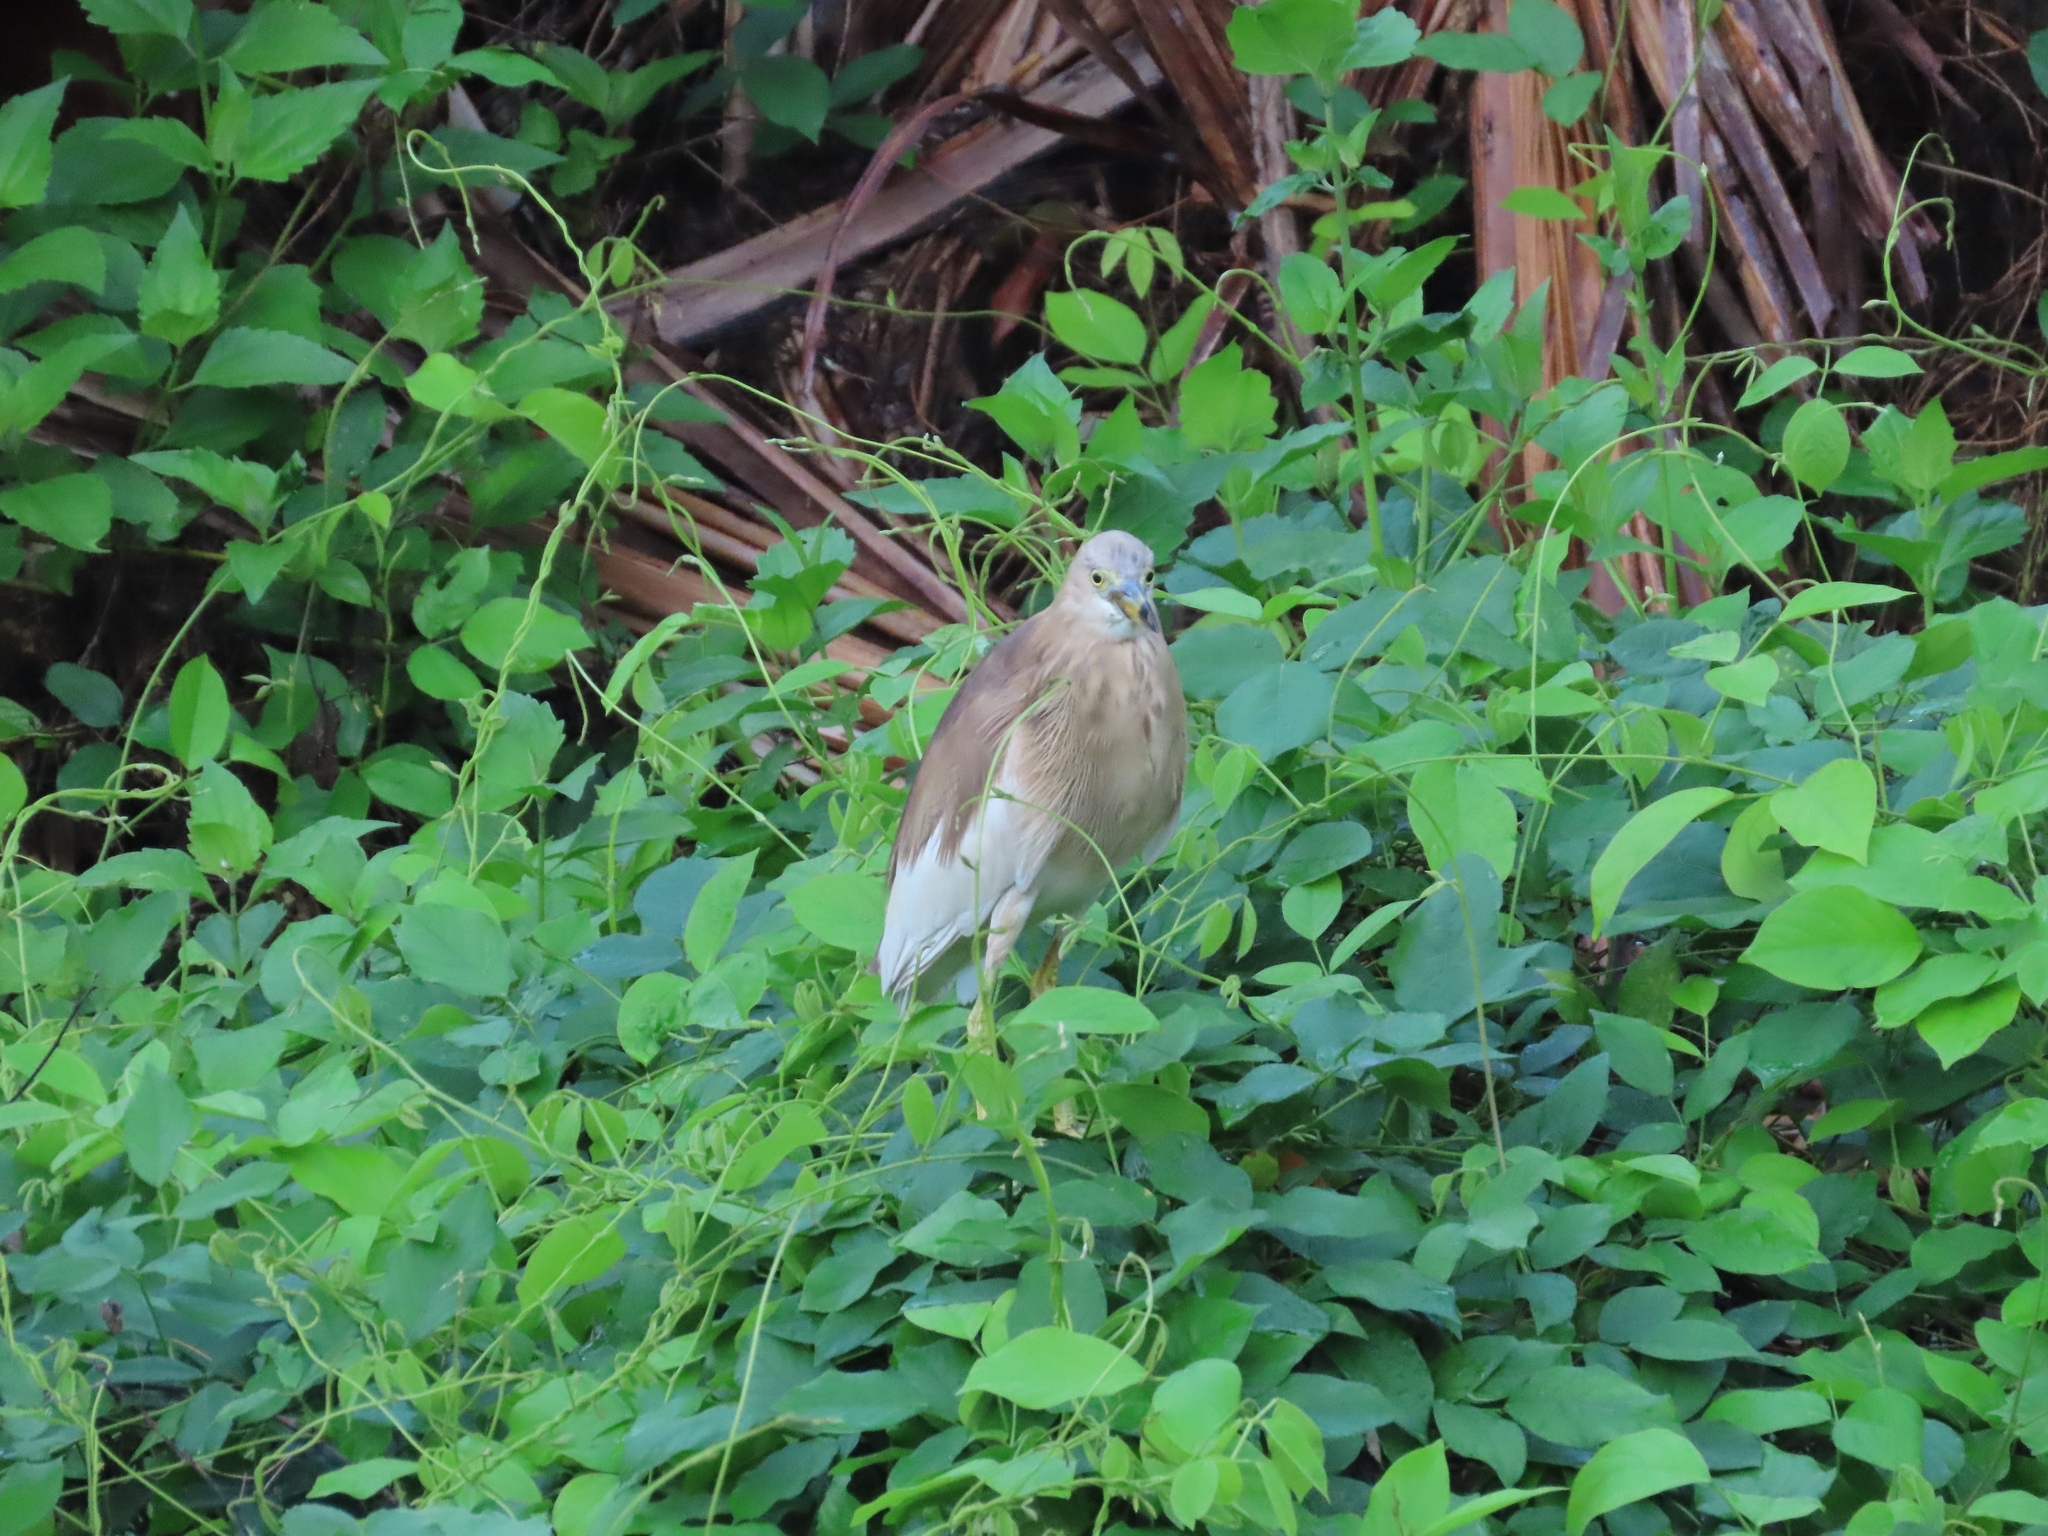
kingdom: Animalia
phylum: Chordata
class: Aves
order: Pelecaniformes
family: Ardeidae
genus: Ardeola
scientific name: Ardeola grayii
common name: Indian pond heron
